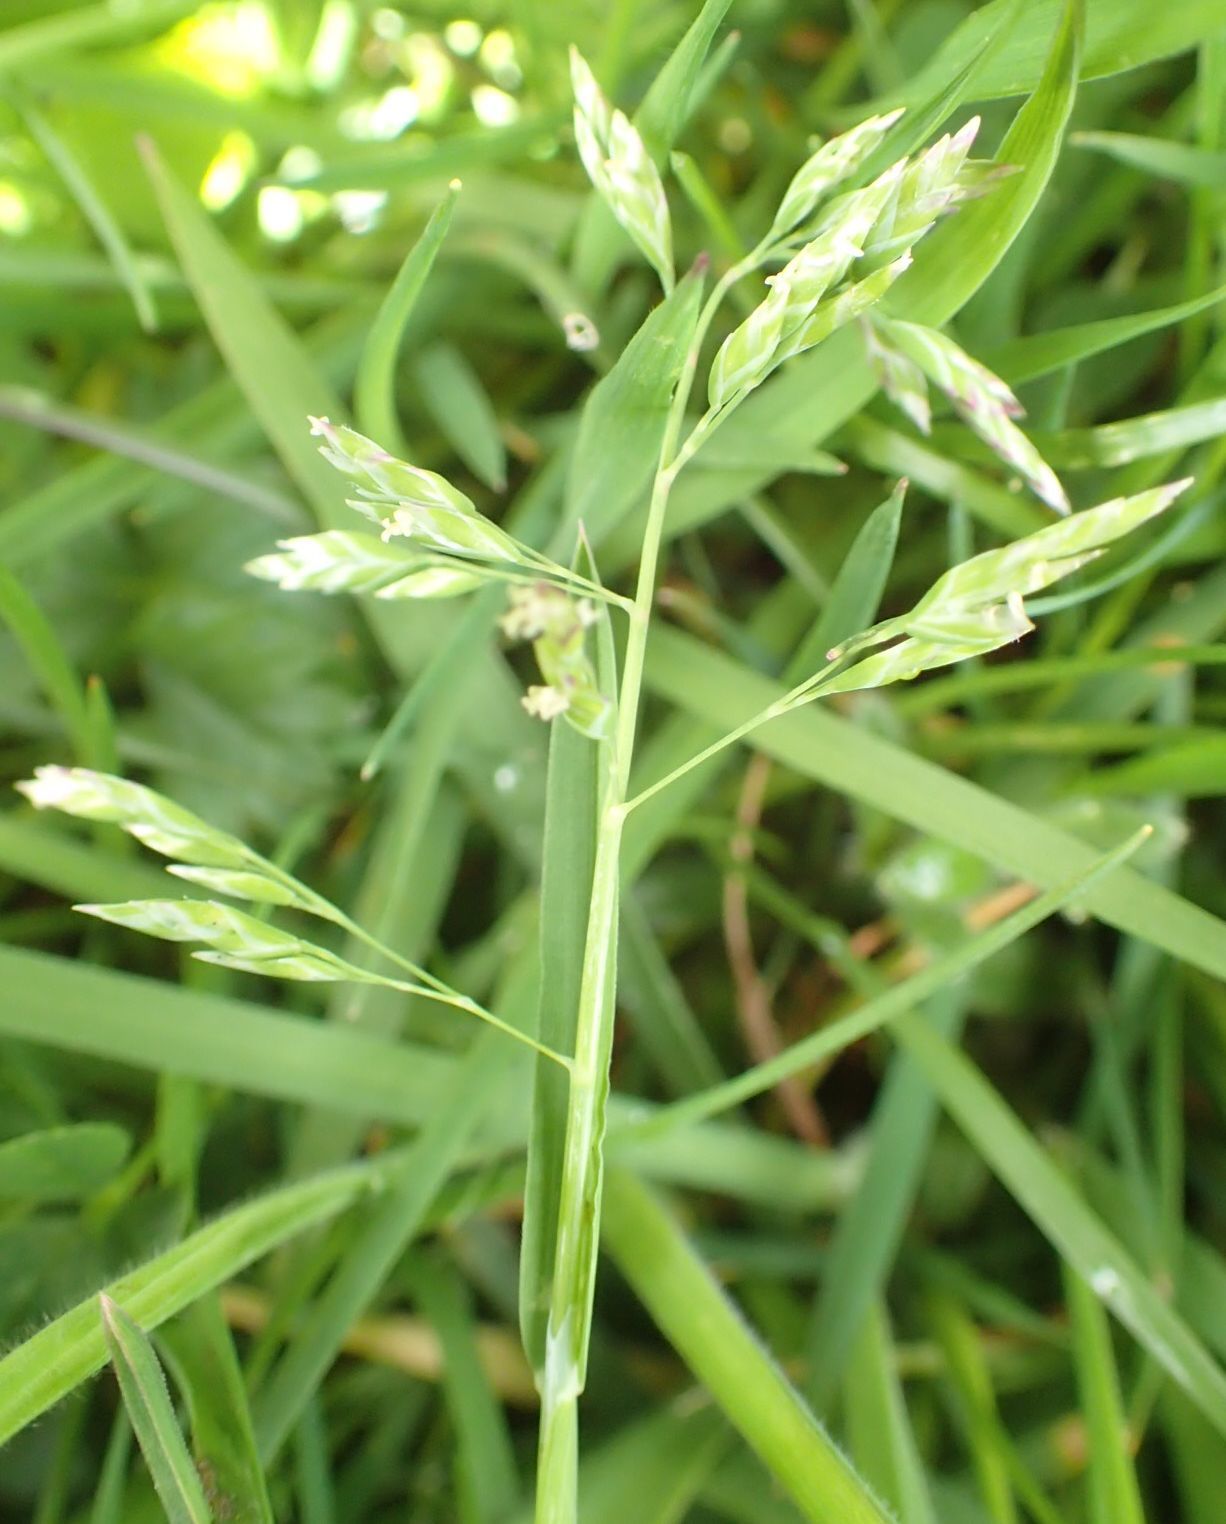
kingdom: Plantae
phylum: Tracheophyta
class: Liliopsida
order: Poales
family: Poaceae
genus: Poa
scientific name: Poa annua
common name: Annual bluegrass
